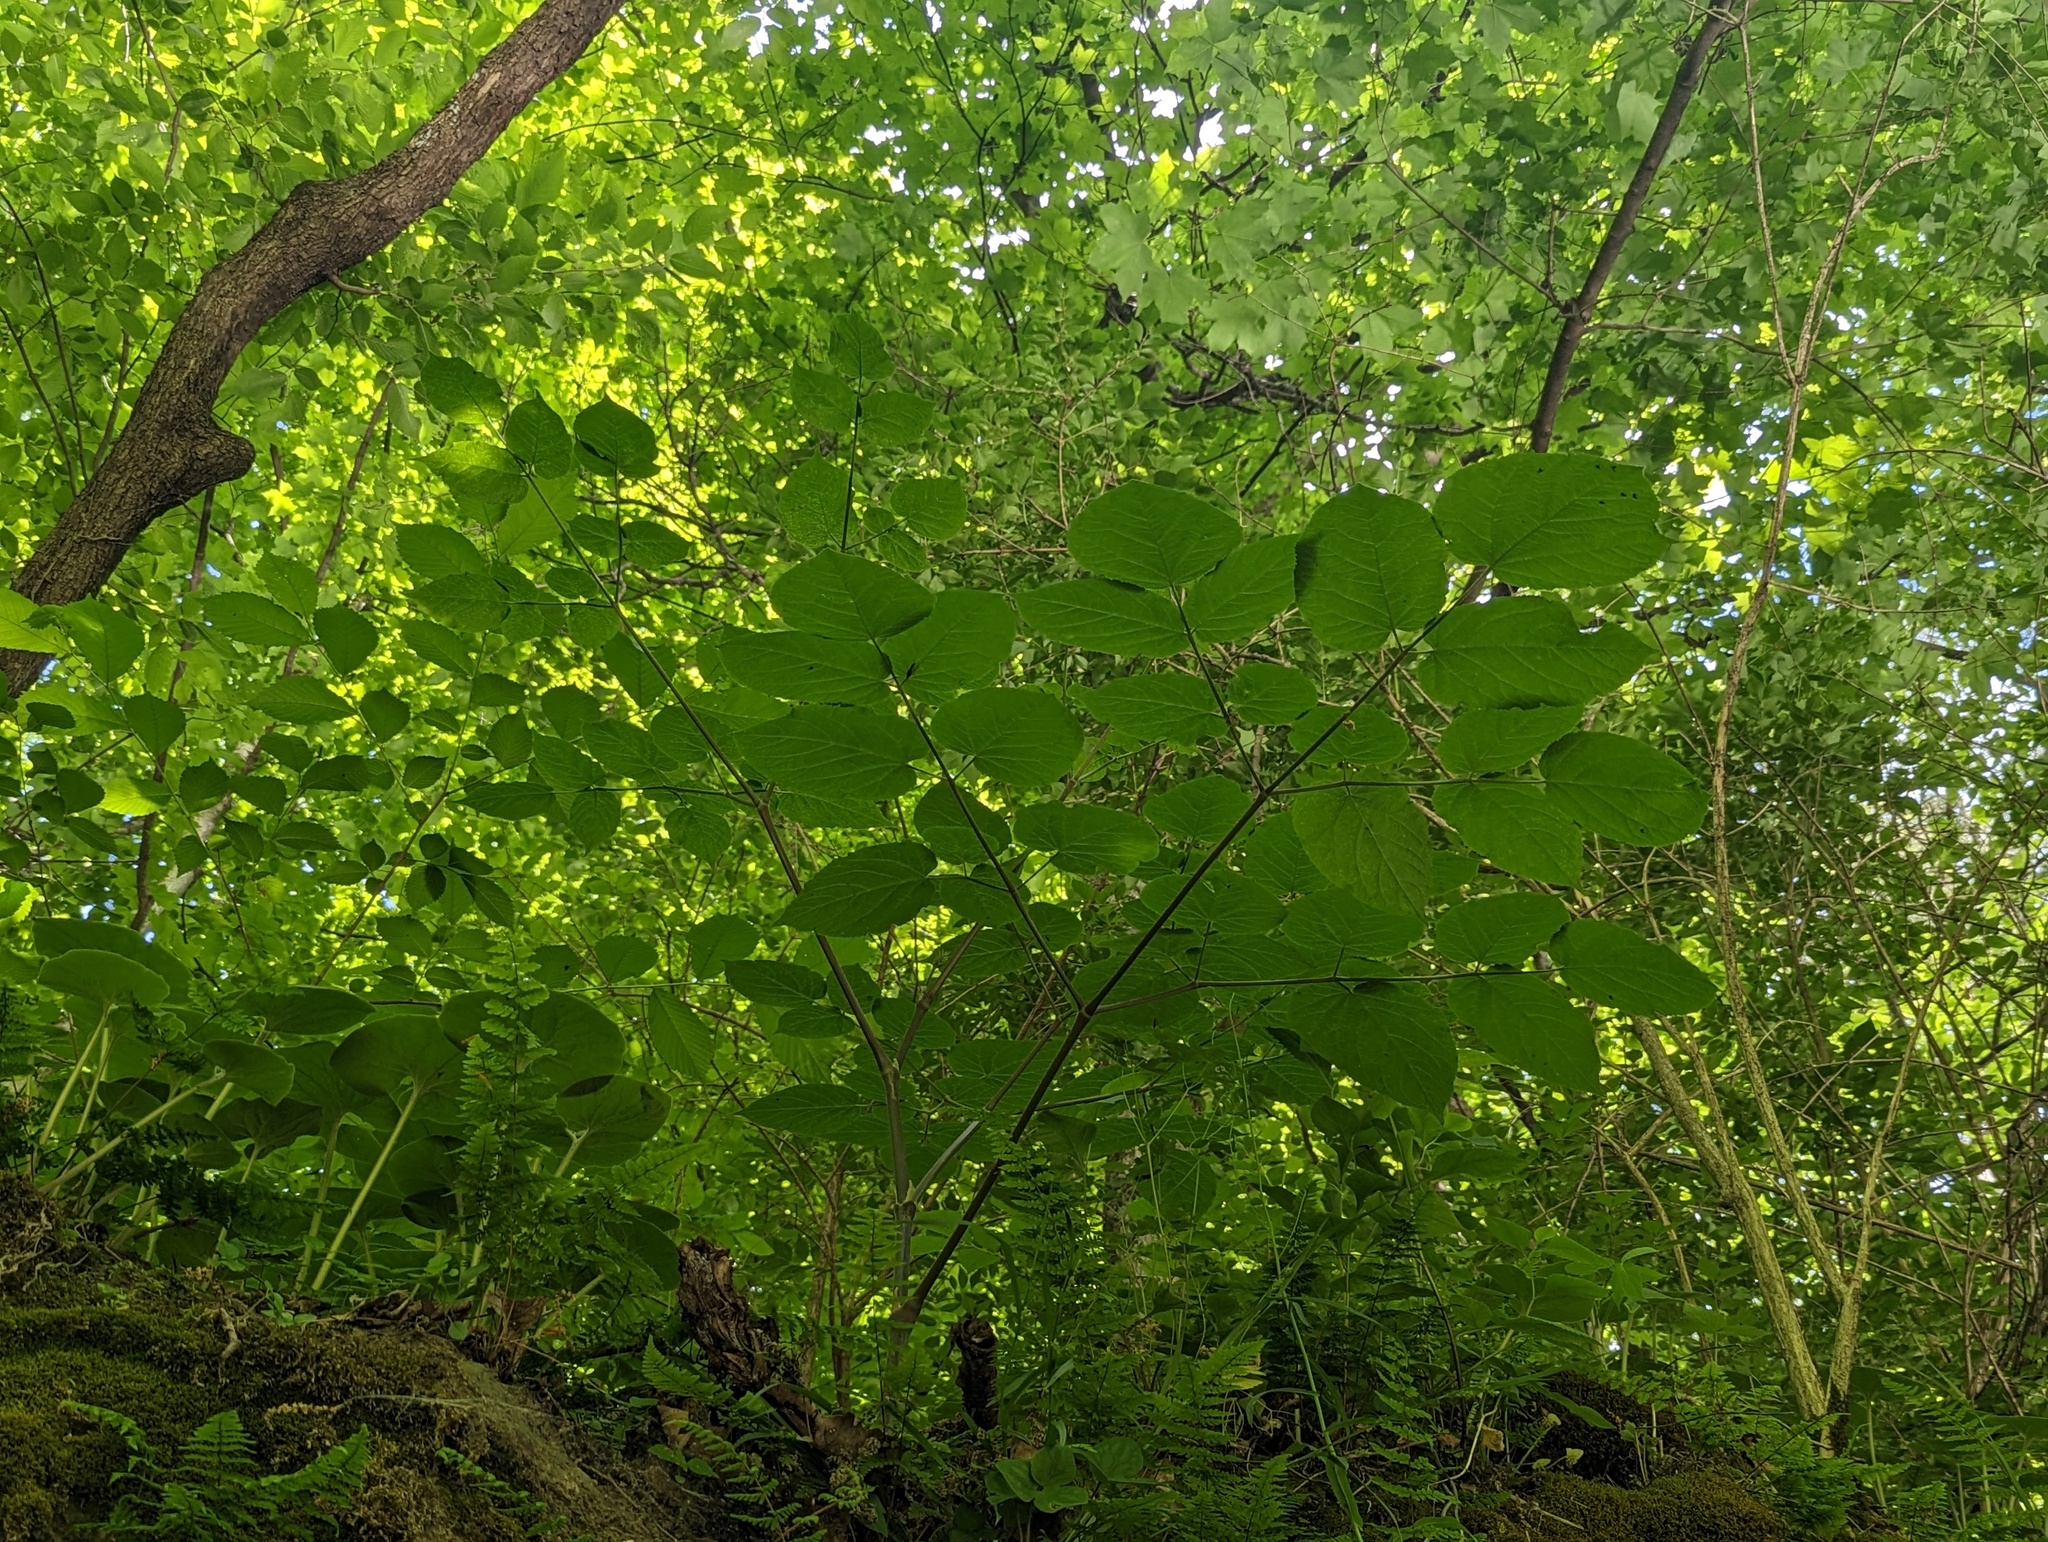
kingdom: Plantae
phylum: Tracheophyta
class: Magnoliopsida
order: Apiales
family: Araliaceae
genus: Aralia
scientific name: Aralia racemosa
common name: American-spikenard
